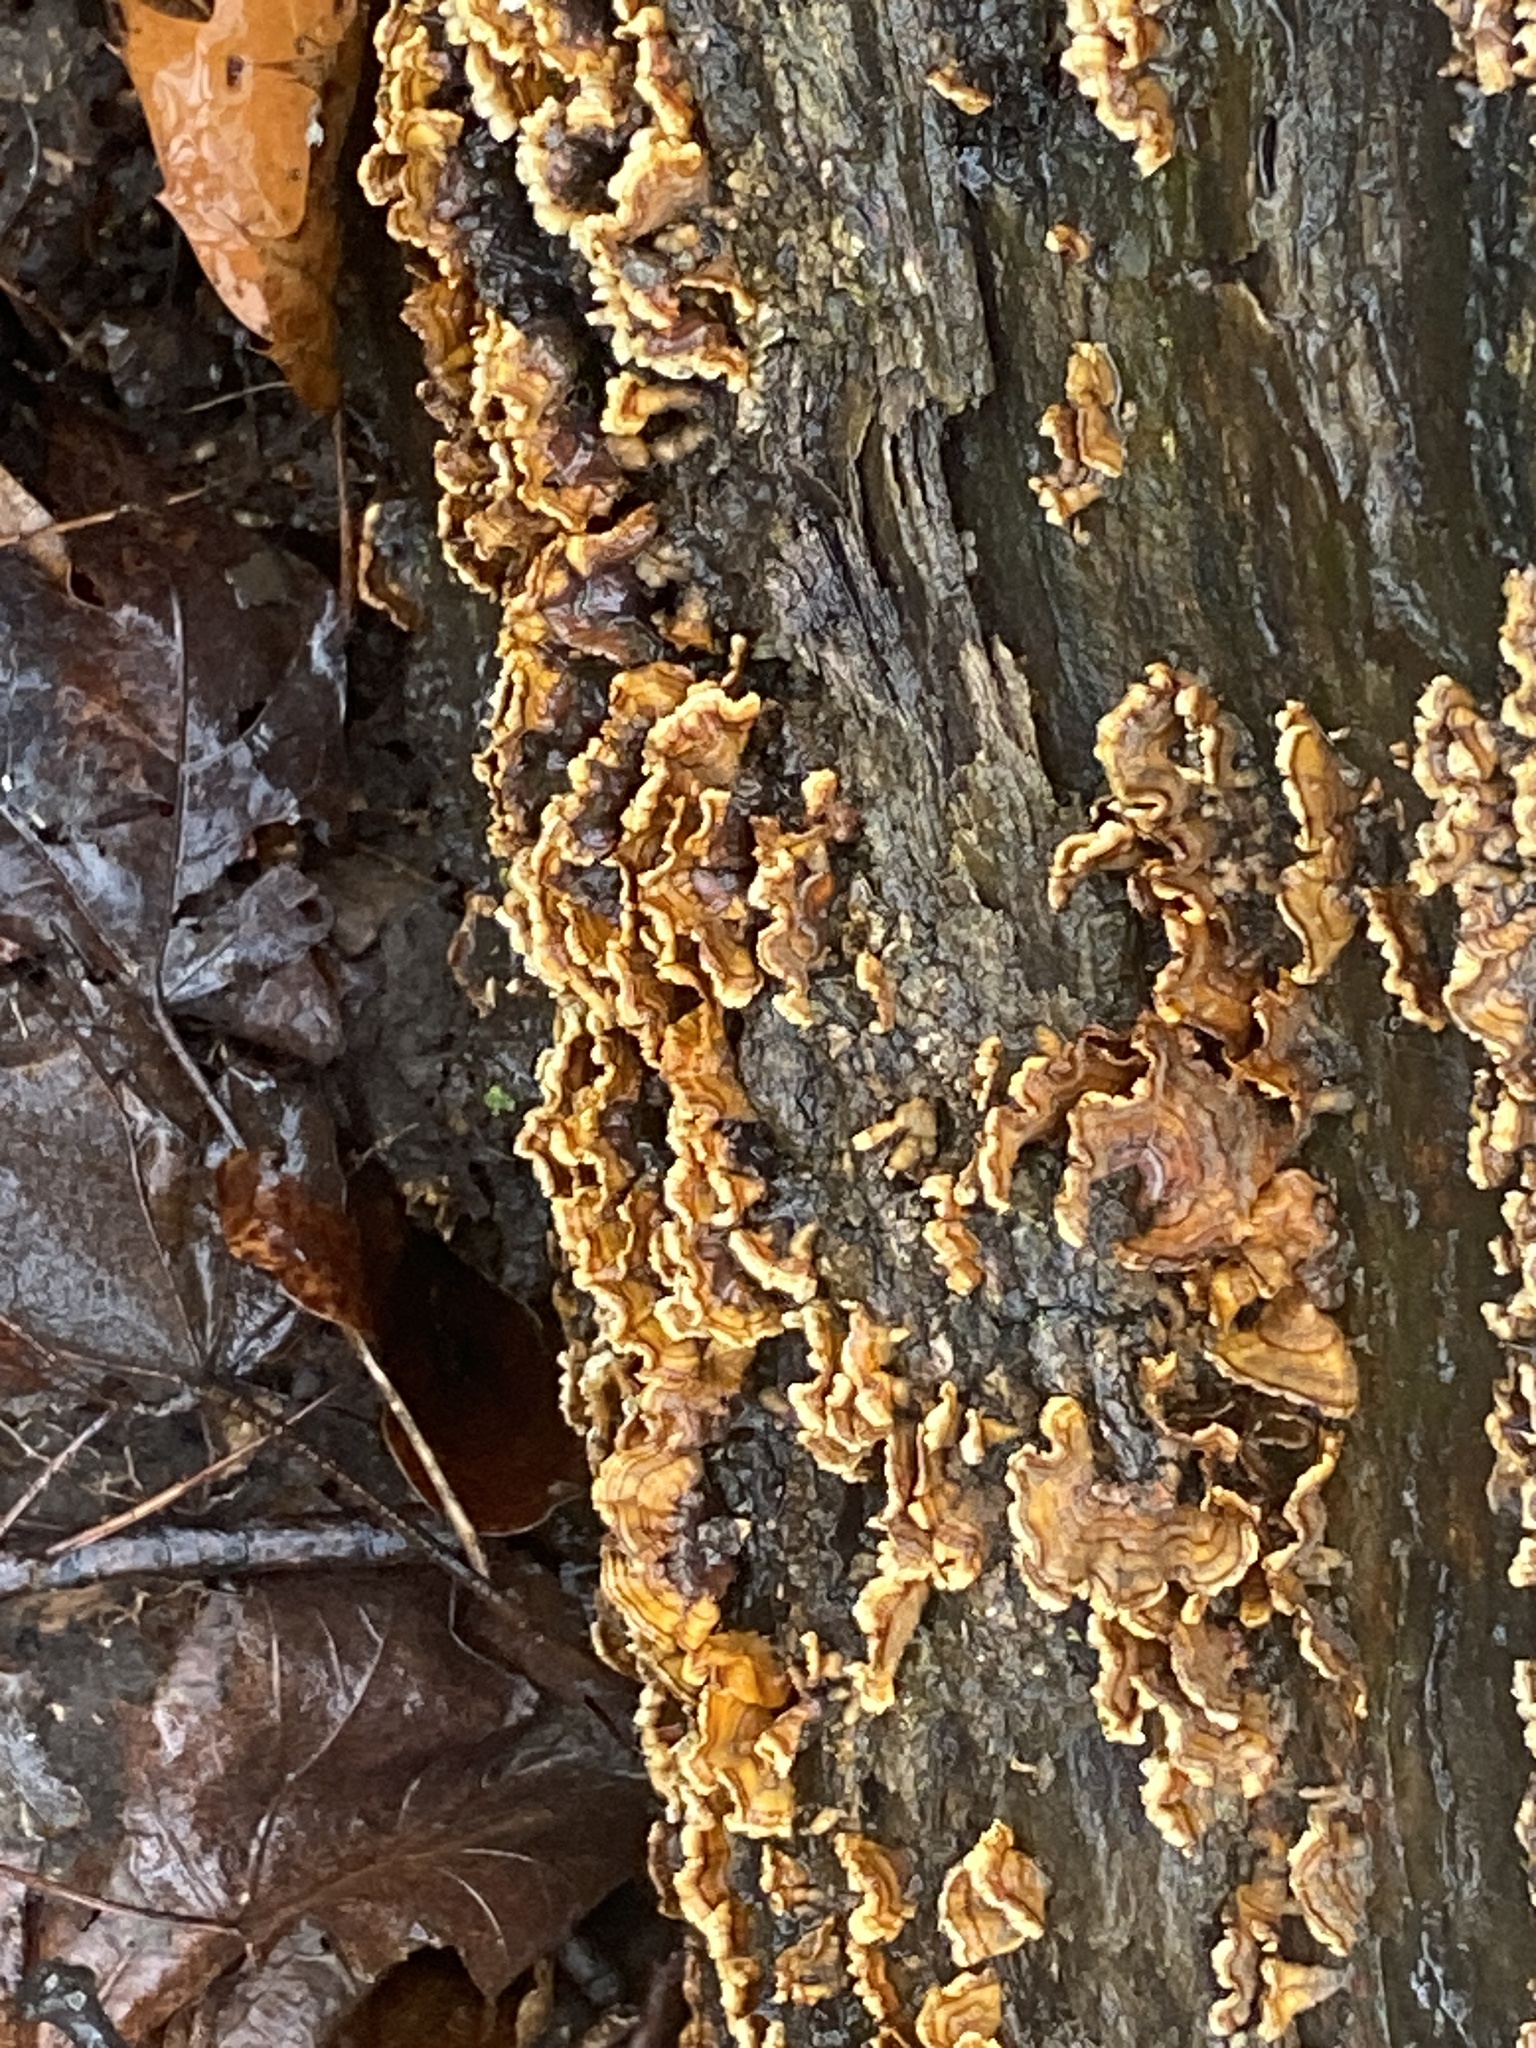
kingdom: Fungi
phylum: Basidiomycota
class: Agaricomycetes
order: Russulales
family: Stereaceae
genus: Stereum
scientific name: Stereum complicatum
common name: Crowded parchment
